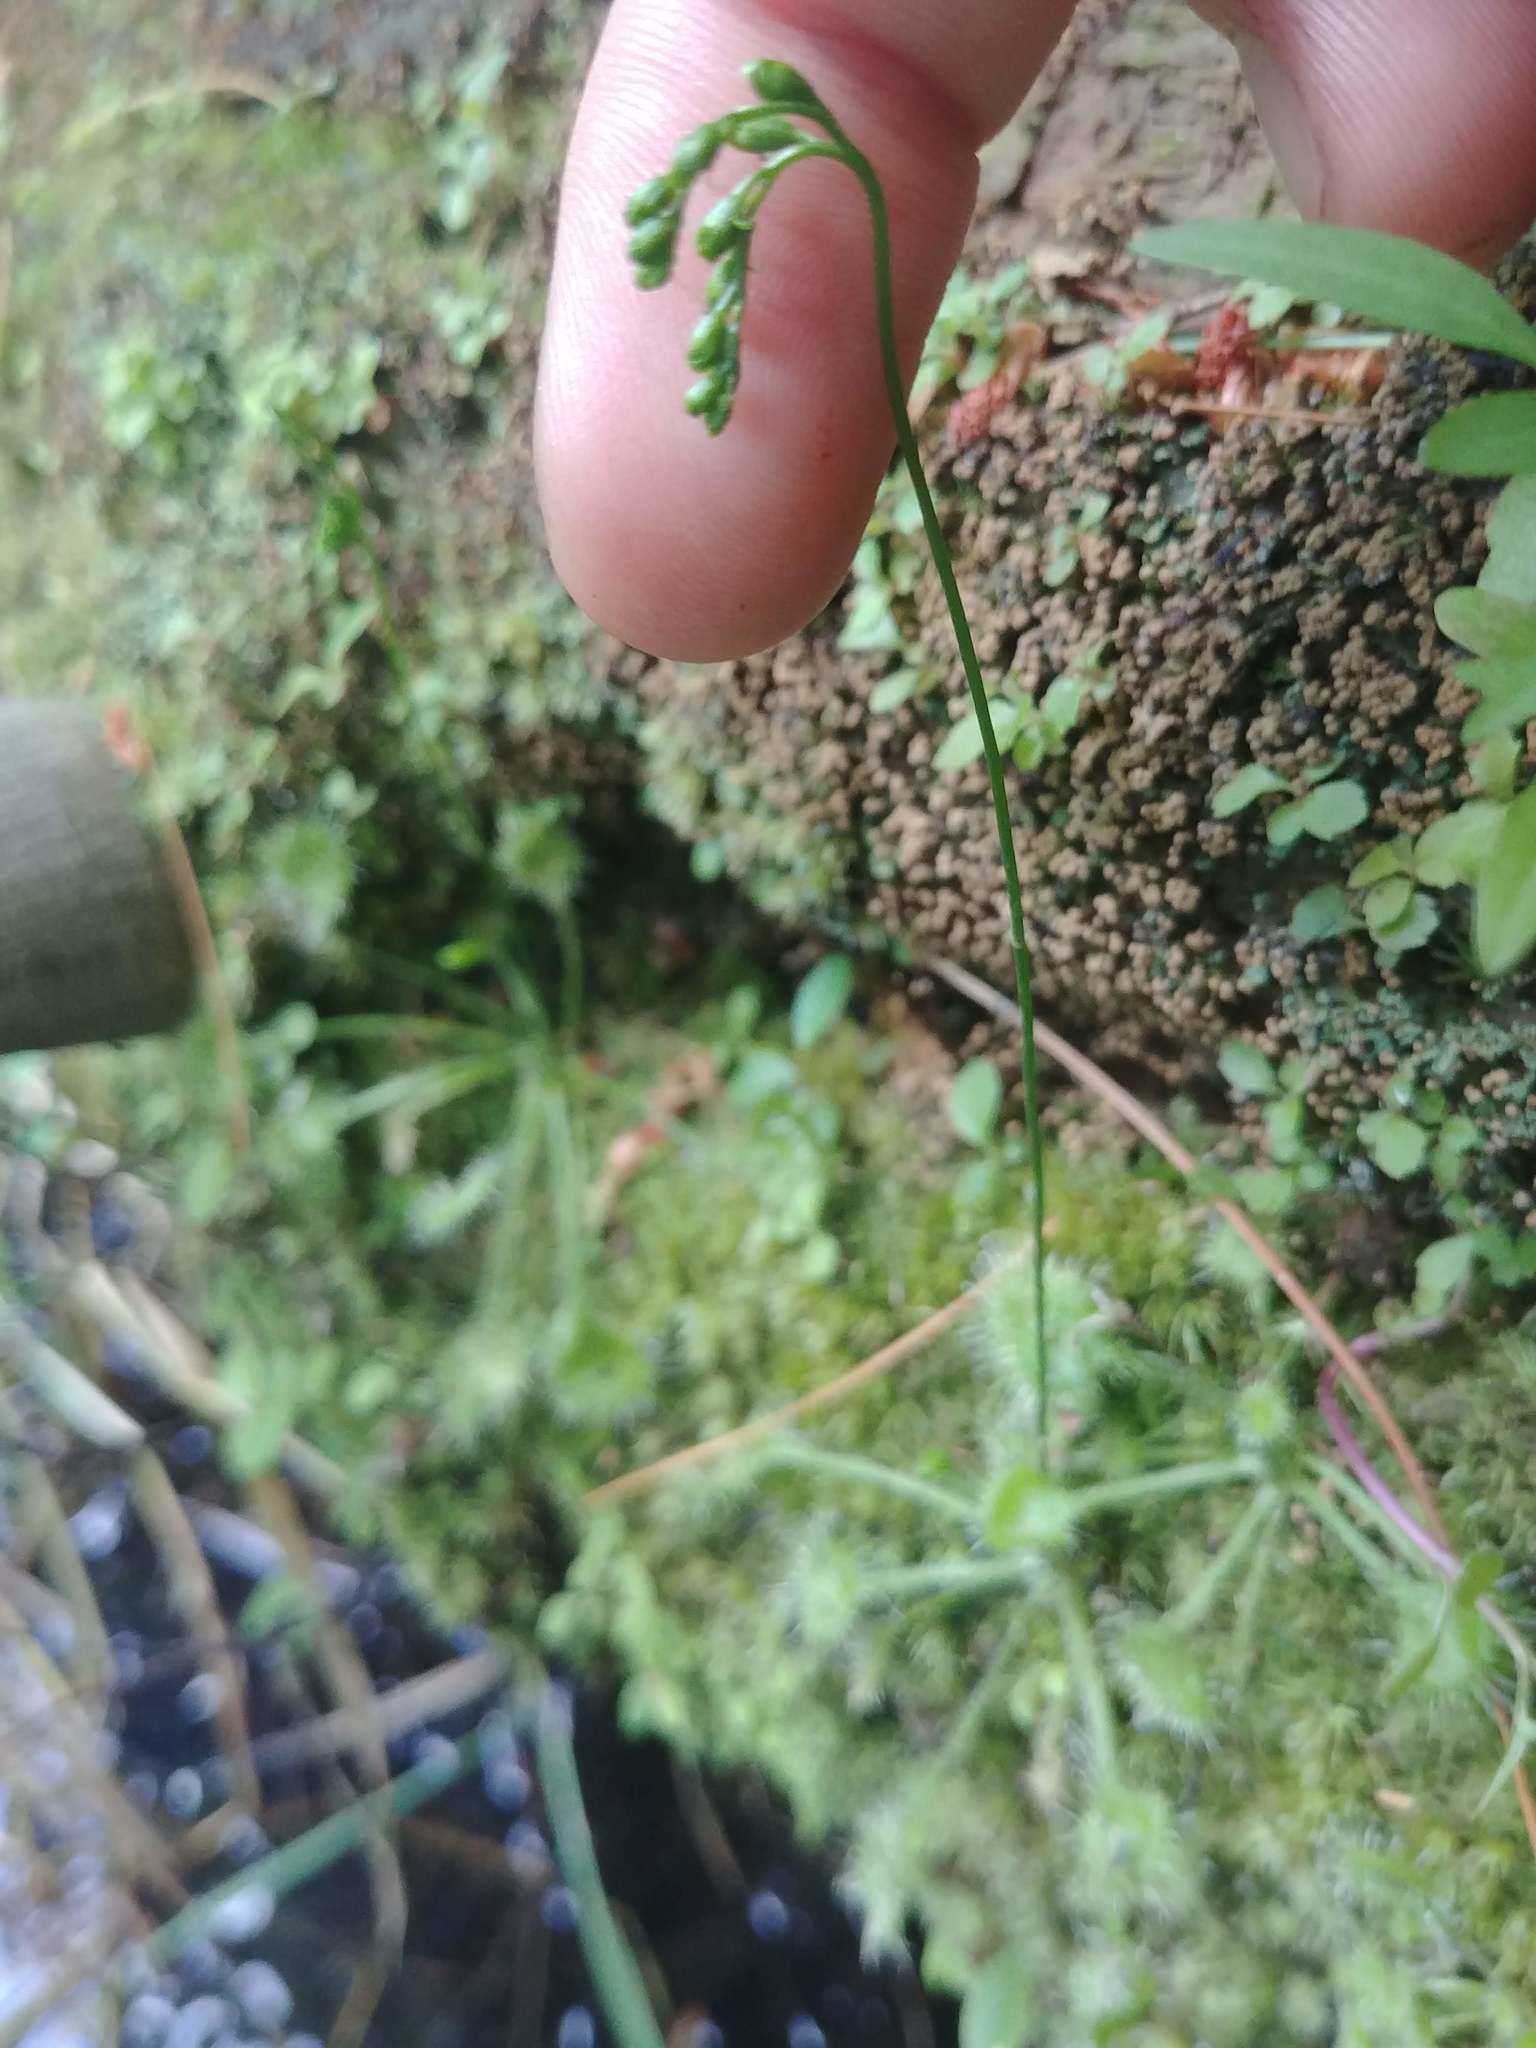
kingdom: Plantae
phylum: Tracheophyta
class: Magnoliopsida
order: Caryophyllales
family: Droseraceae
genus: Drosera
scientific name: Drosera rotundifolia
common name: Round-leaved sundew
